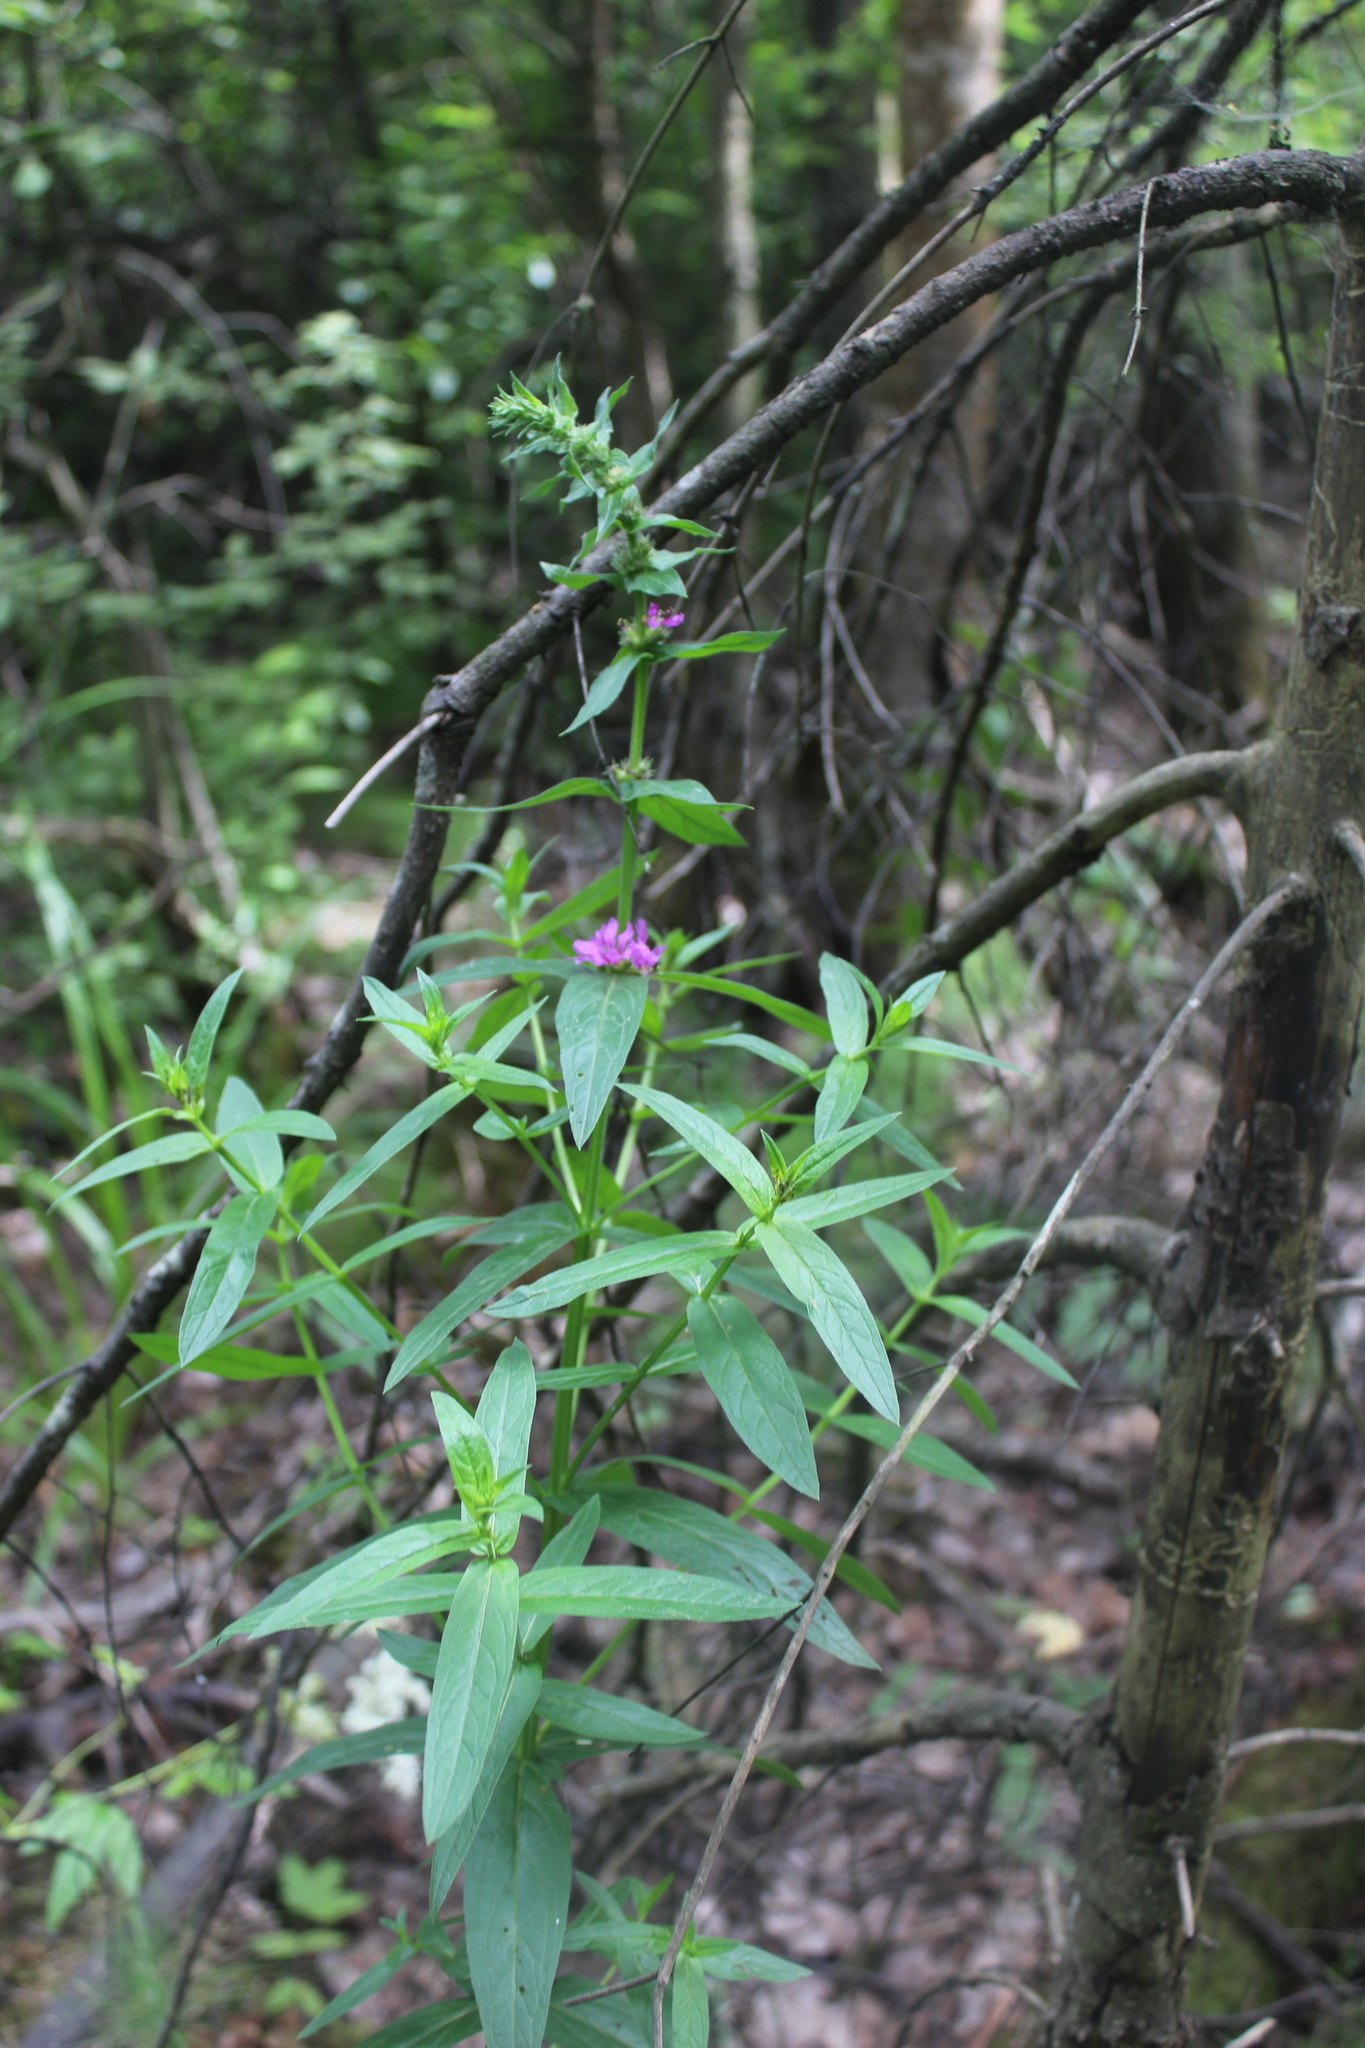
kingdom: Plantae
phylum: Tracheophyta
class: Magnoliopsida
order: Myrtales
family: Lythraceae
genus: Lythrum
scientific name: Lythrum salicaria
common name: Purple loosestrife
